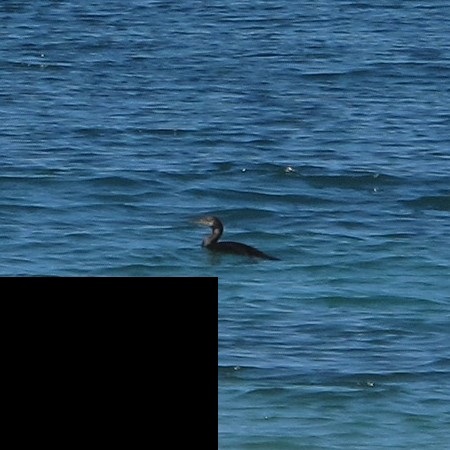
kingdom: Animalia
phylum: Chordata
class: Aves
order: Suliformes
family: Phalacrocoracidae
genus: Phalacrocorax
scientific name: Phalacrocorax carbo
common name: Great cormorant
